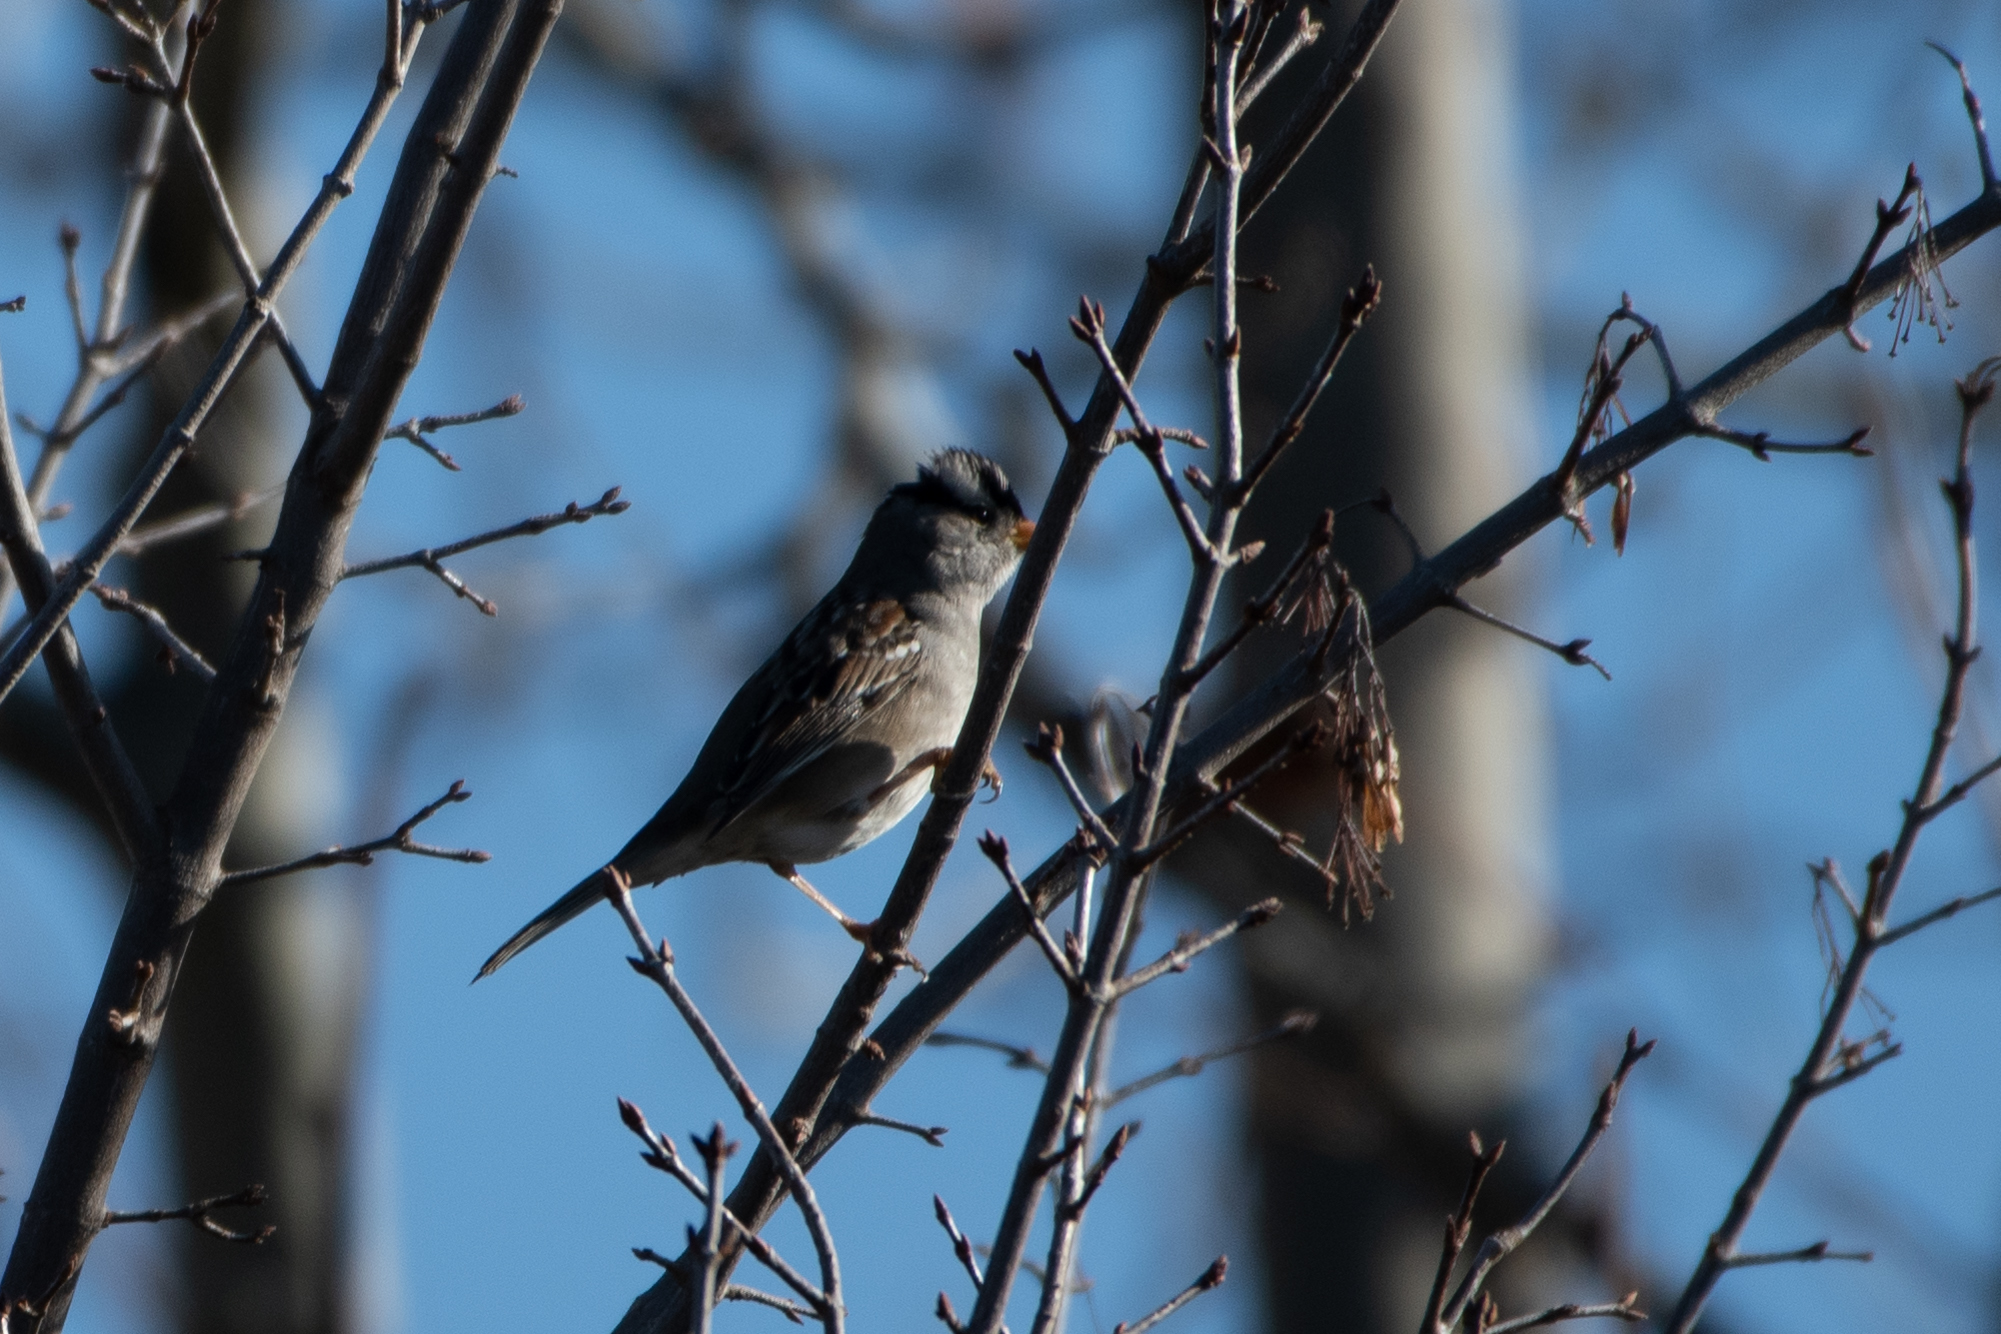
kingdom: Animalia
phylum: Chordata
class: Aves
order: Passeriformes
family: Passerellidae
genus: Zonotrichia
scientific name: Zonotrichia leucophrys
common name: White-crowned sparrow
